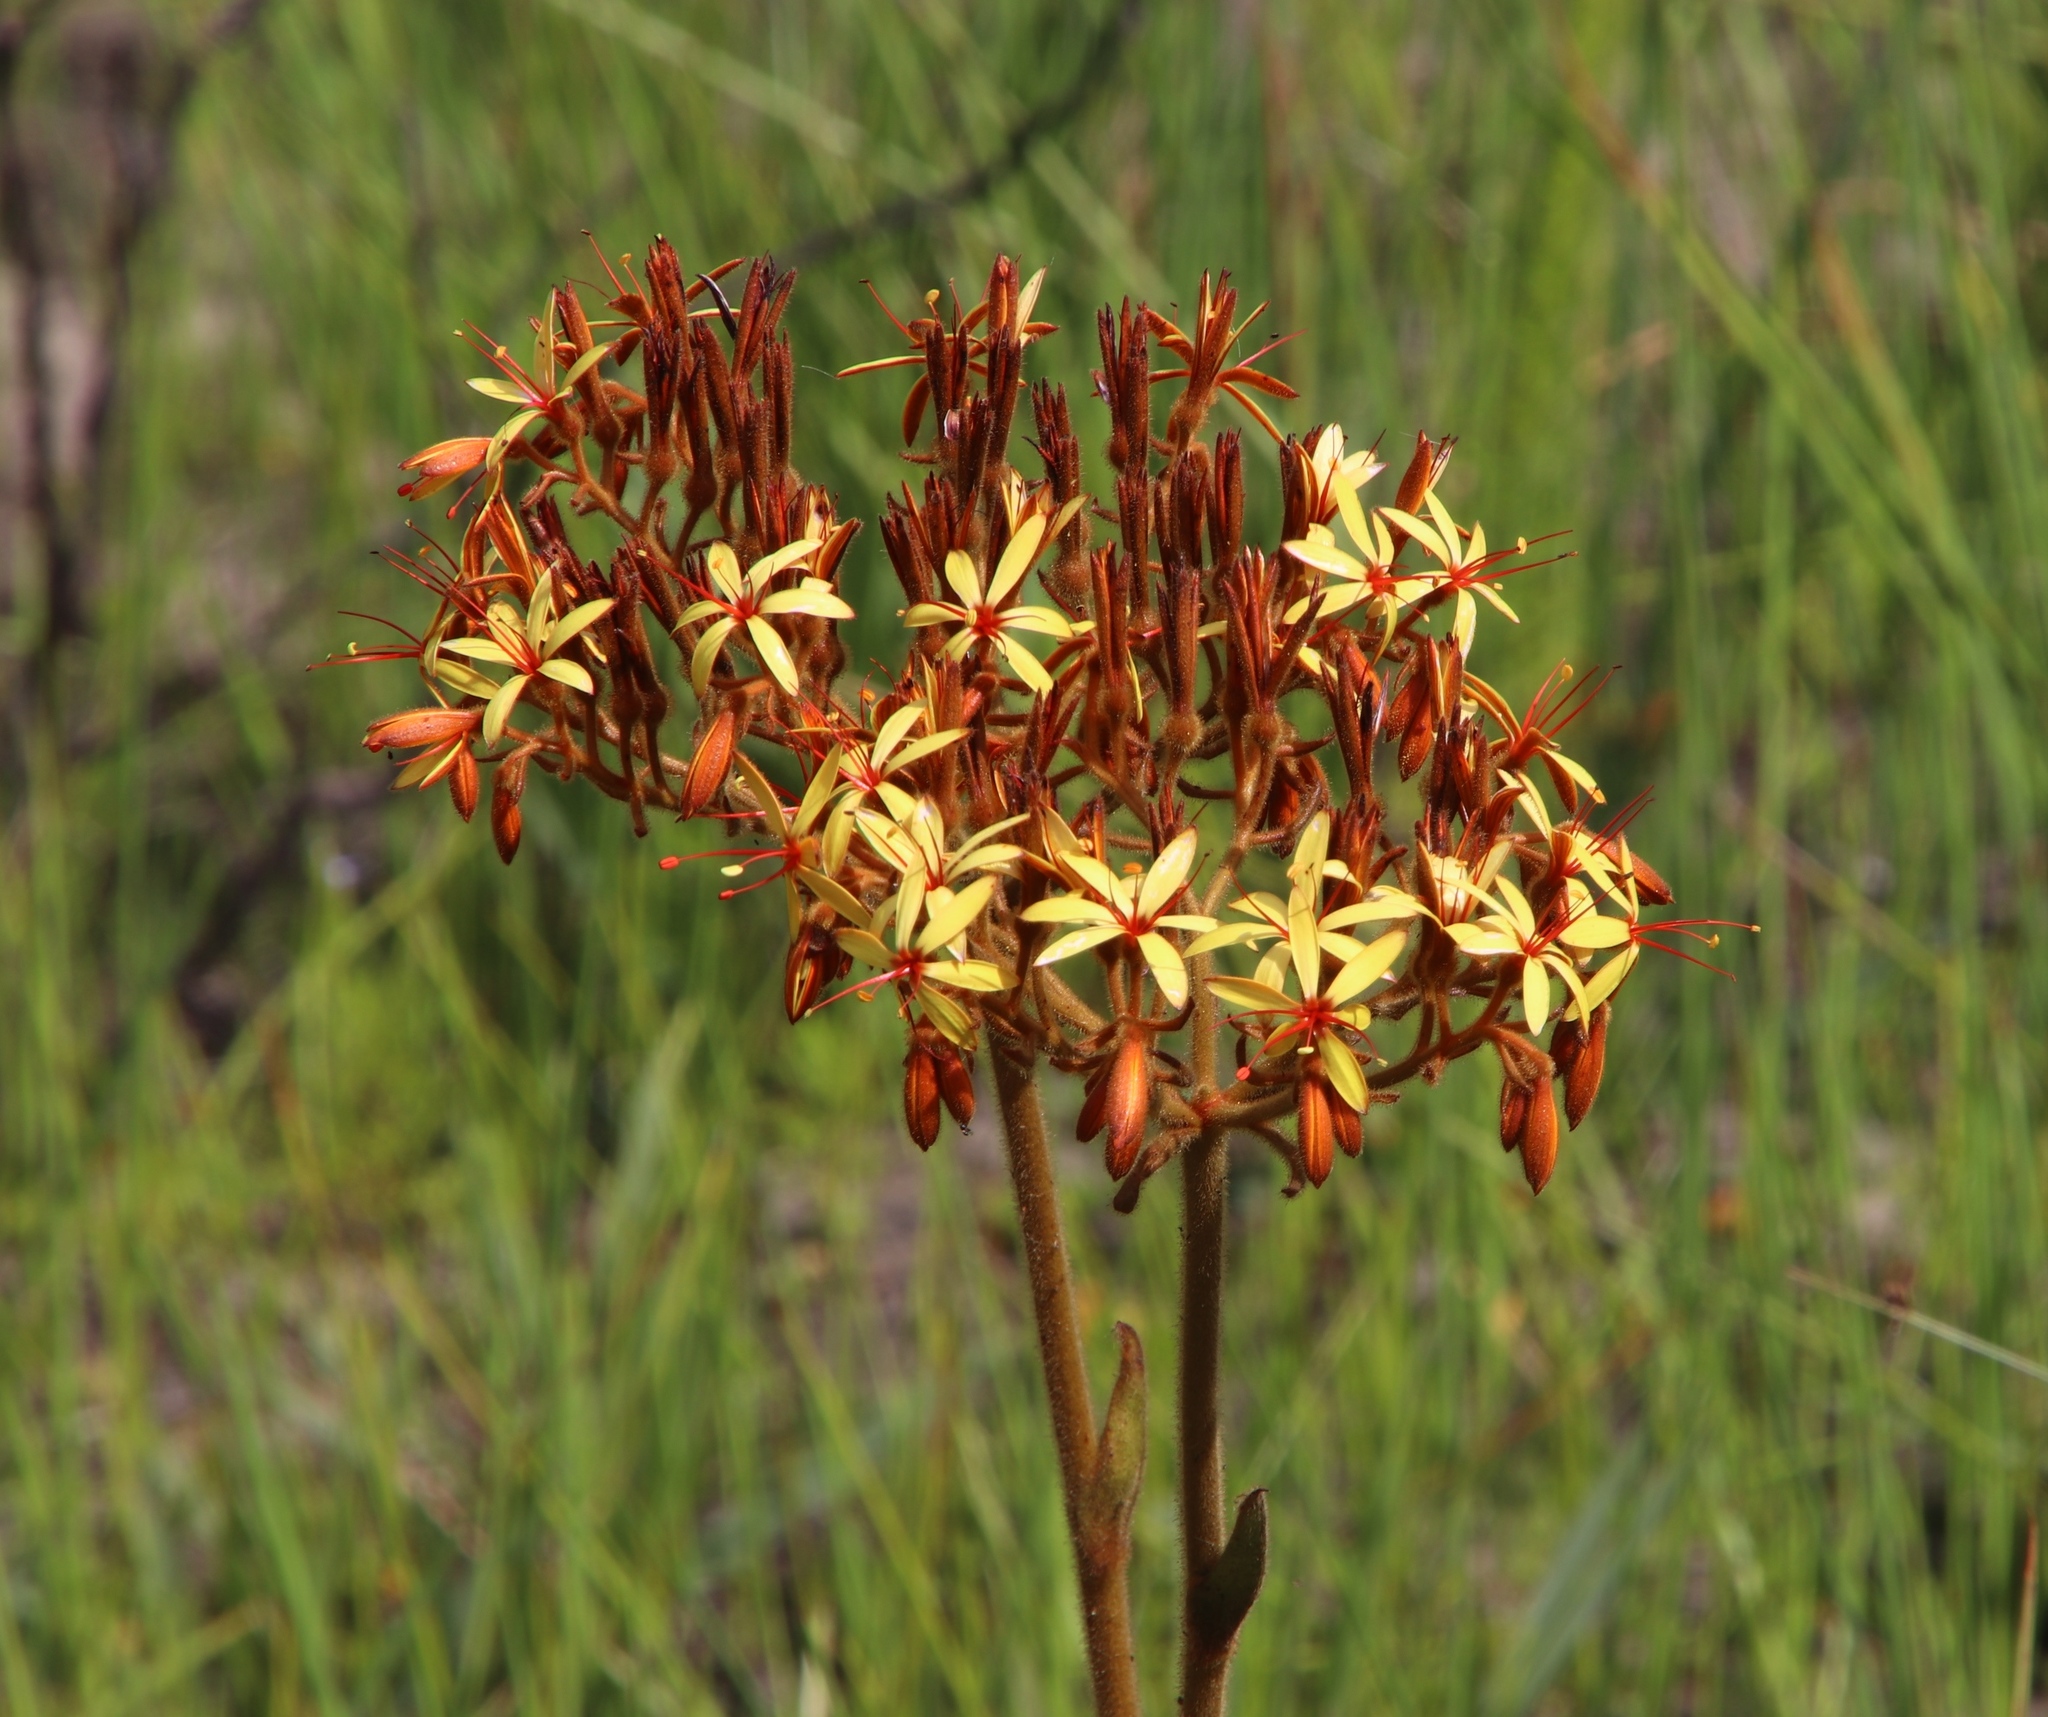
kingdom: Plantae
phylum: Tracheophyta
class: Liliopsida
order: Commelinales
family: Haemodoraceae
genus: Dilatris
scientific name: Dilatris viscosa
